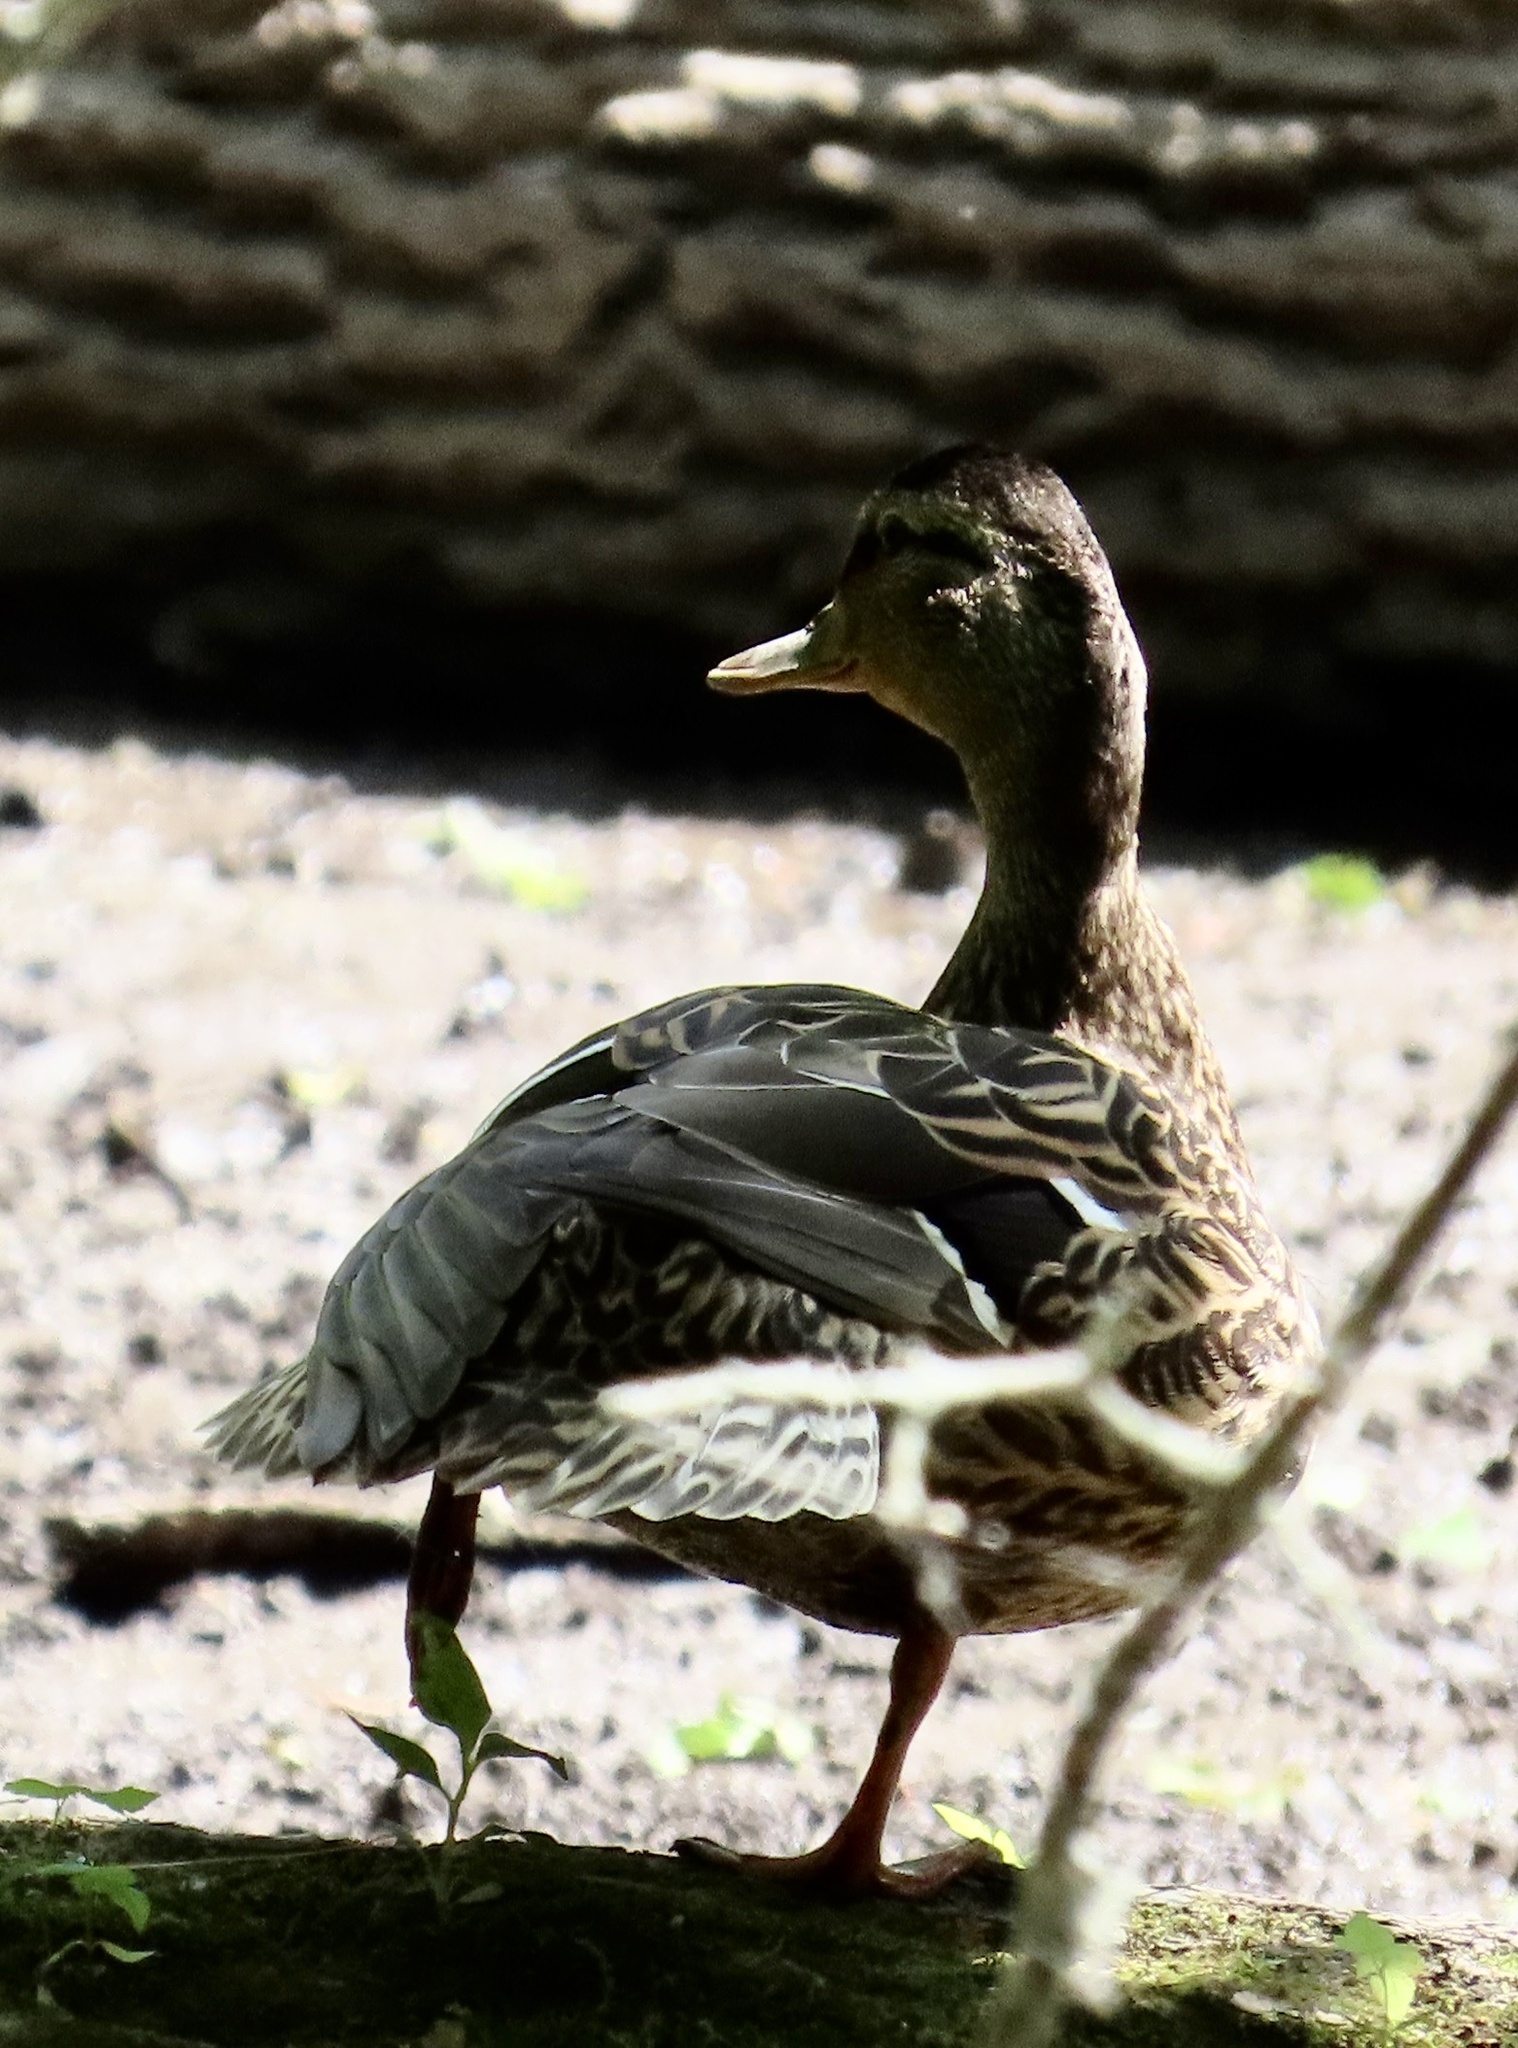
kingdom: Animalia
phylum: Chordata
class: Aves
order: Anseriformes
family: Anatidae
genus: Anas
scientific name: Anas platyrhynchos
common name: Mallard
